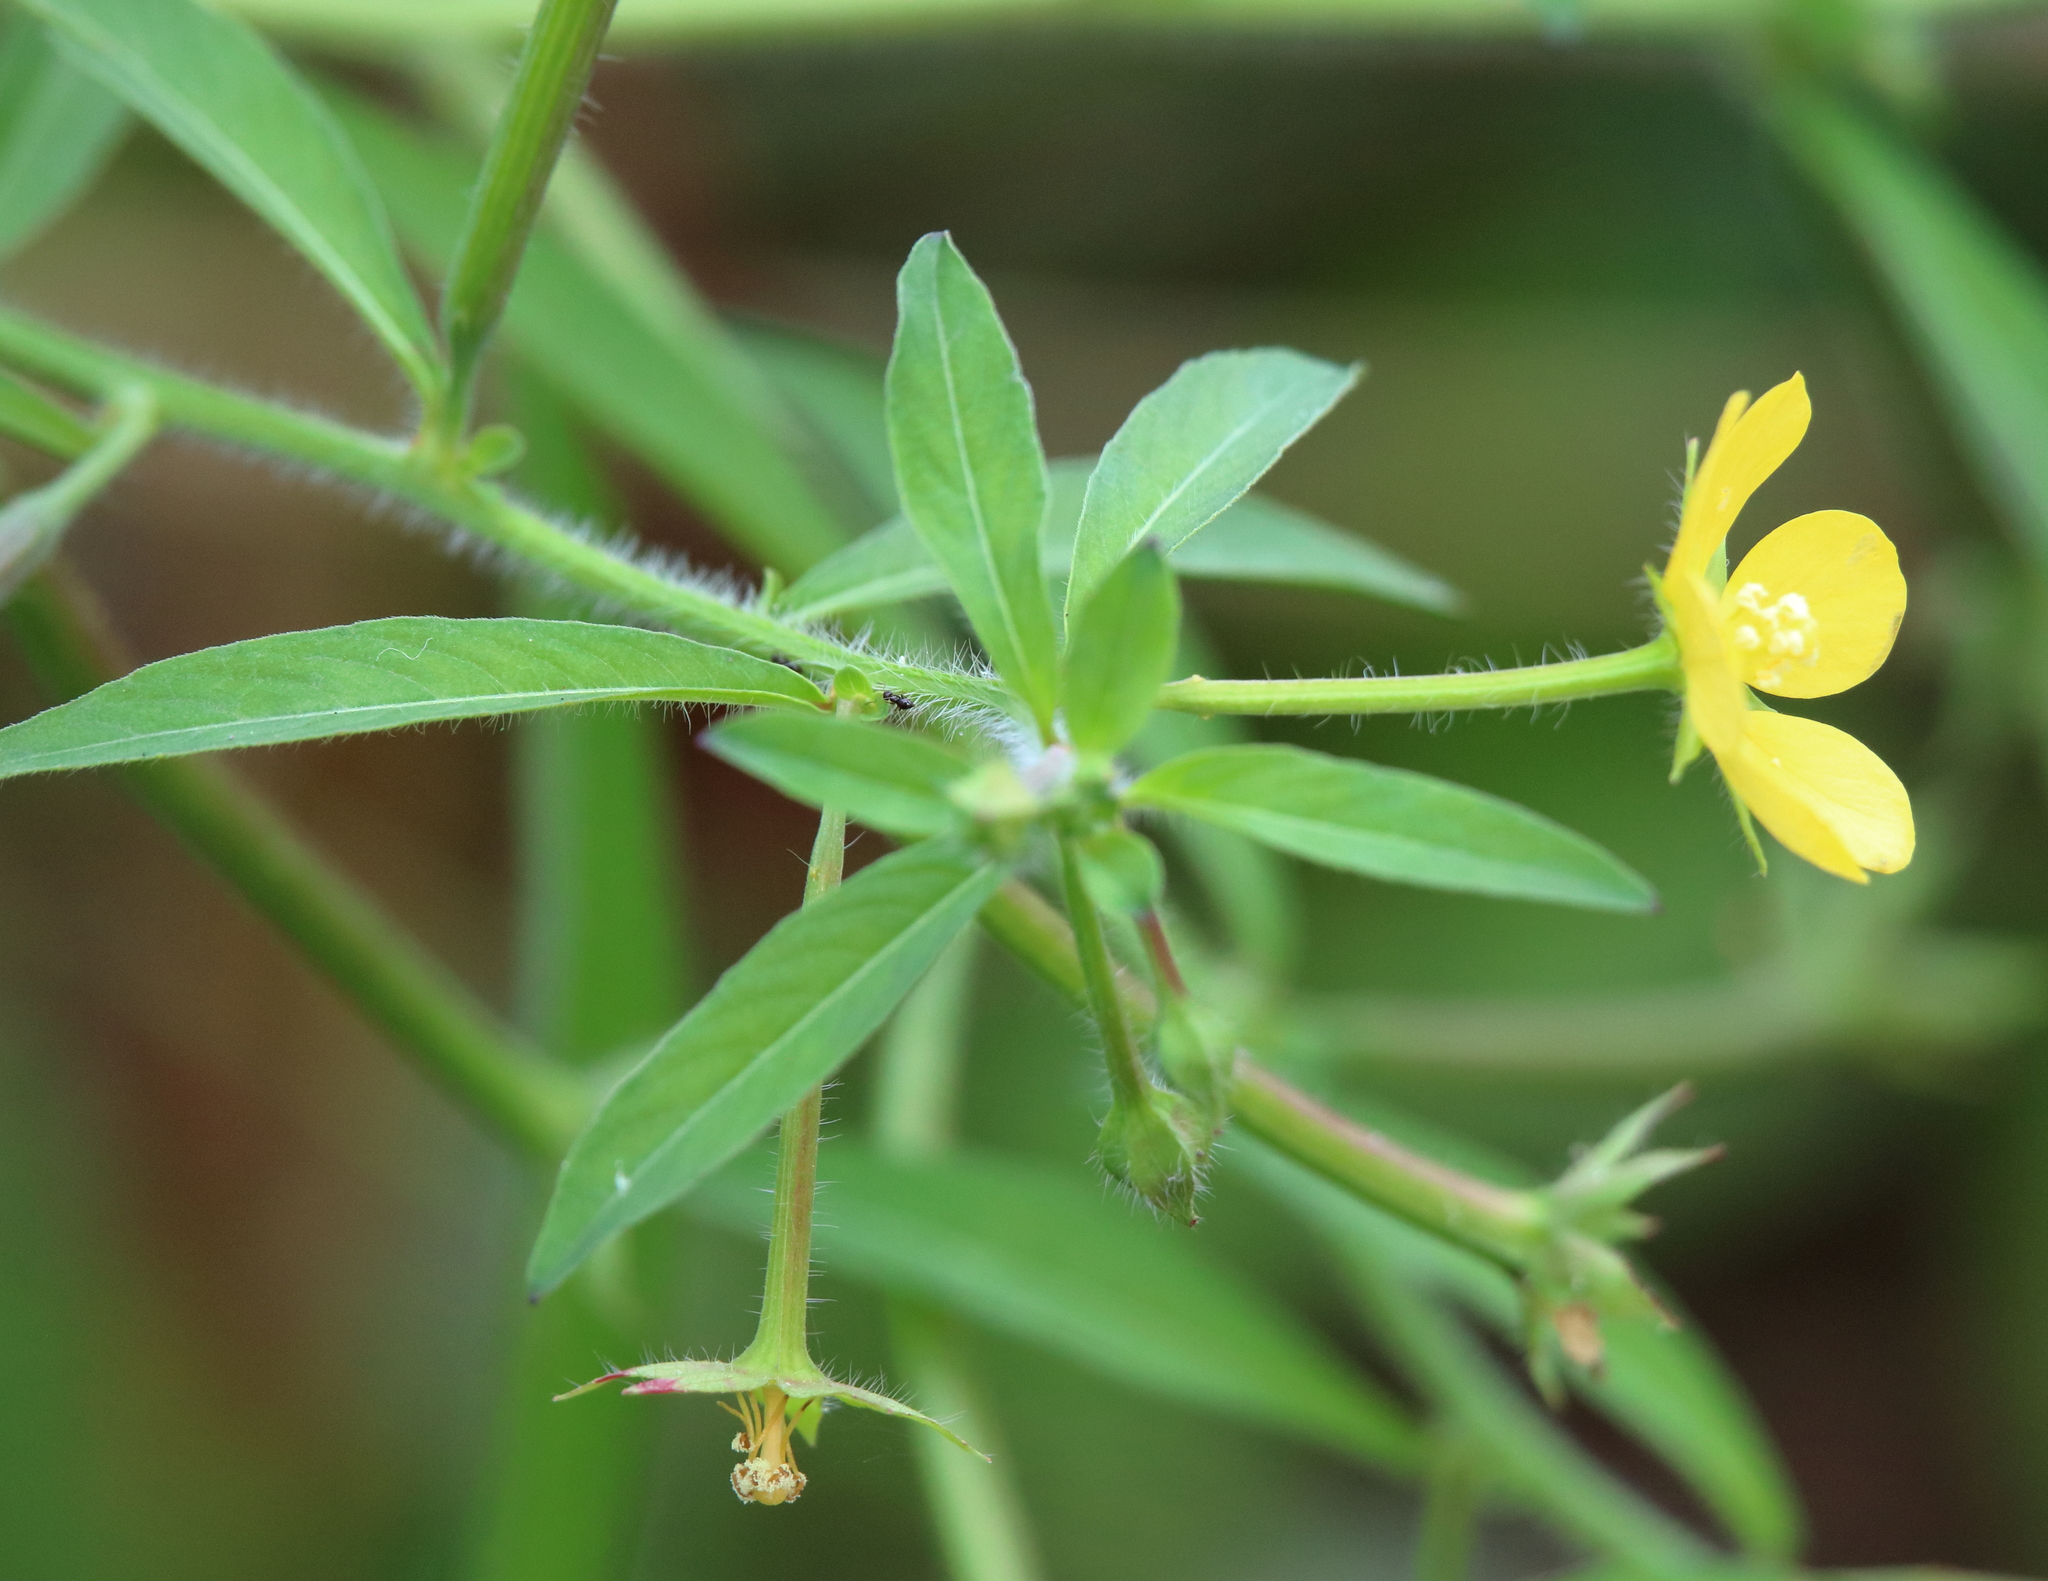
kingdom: Plantae
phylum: Tracheophyta
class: Magnoliopsida
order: Myrtales
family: Onagraceae
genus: Ludwigia
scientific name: Ludwigia leptocarpa
